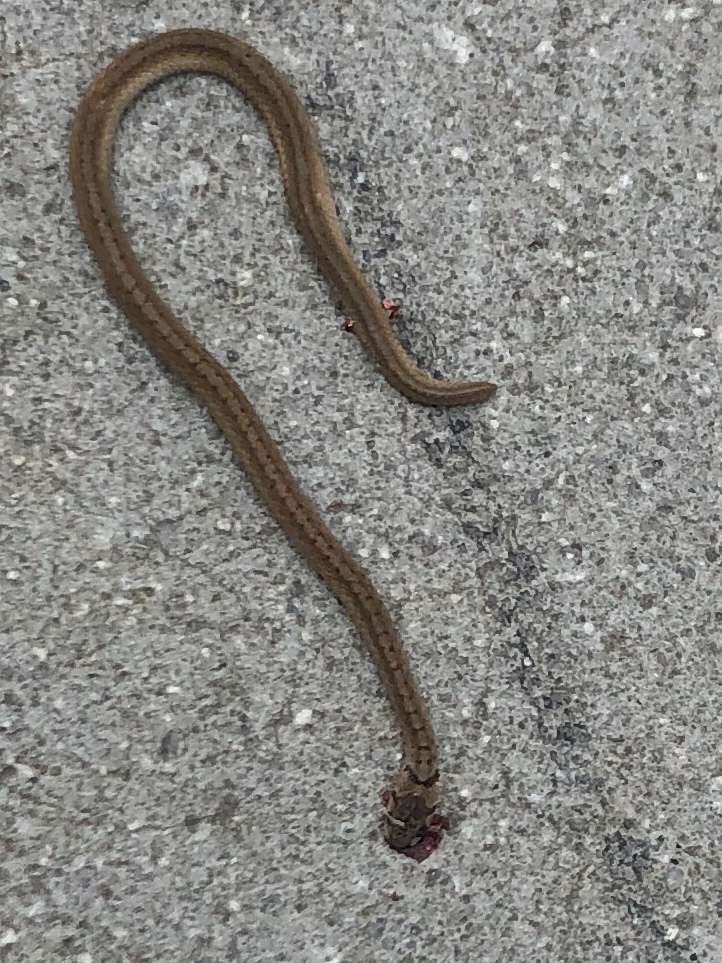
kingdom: Animalia
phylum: Chordata
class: Squamata
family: Colubridae
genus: Storeria
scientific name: Storeria dekayi
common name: (dekay’s) brown snake
